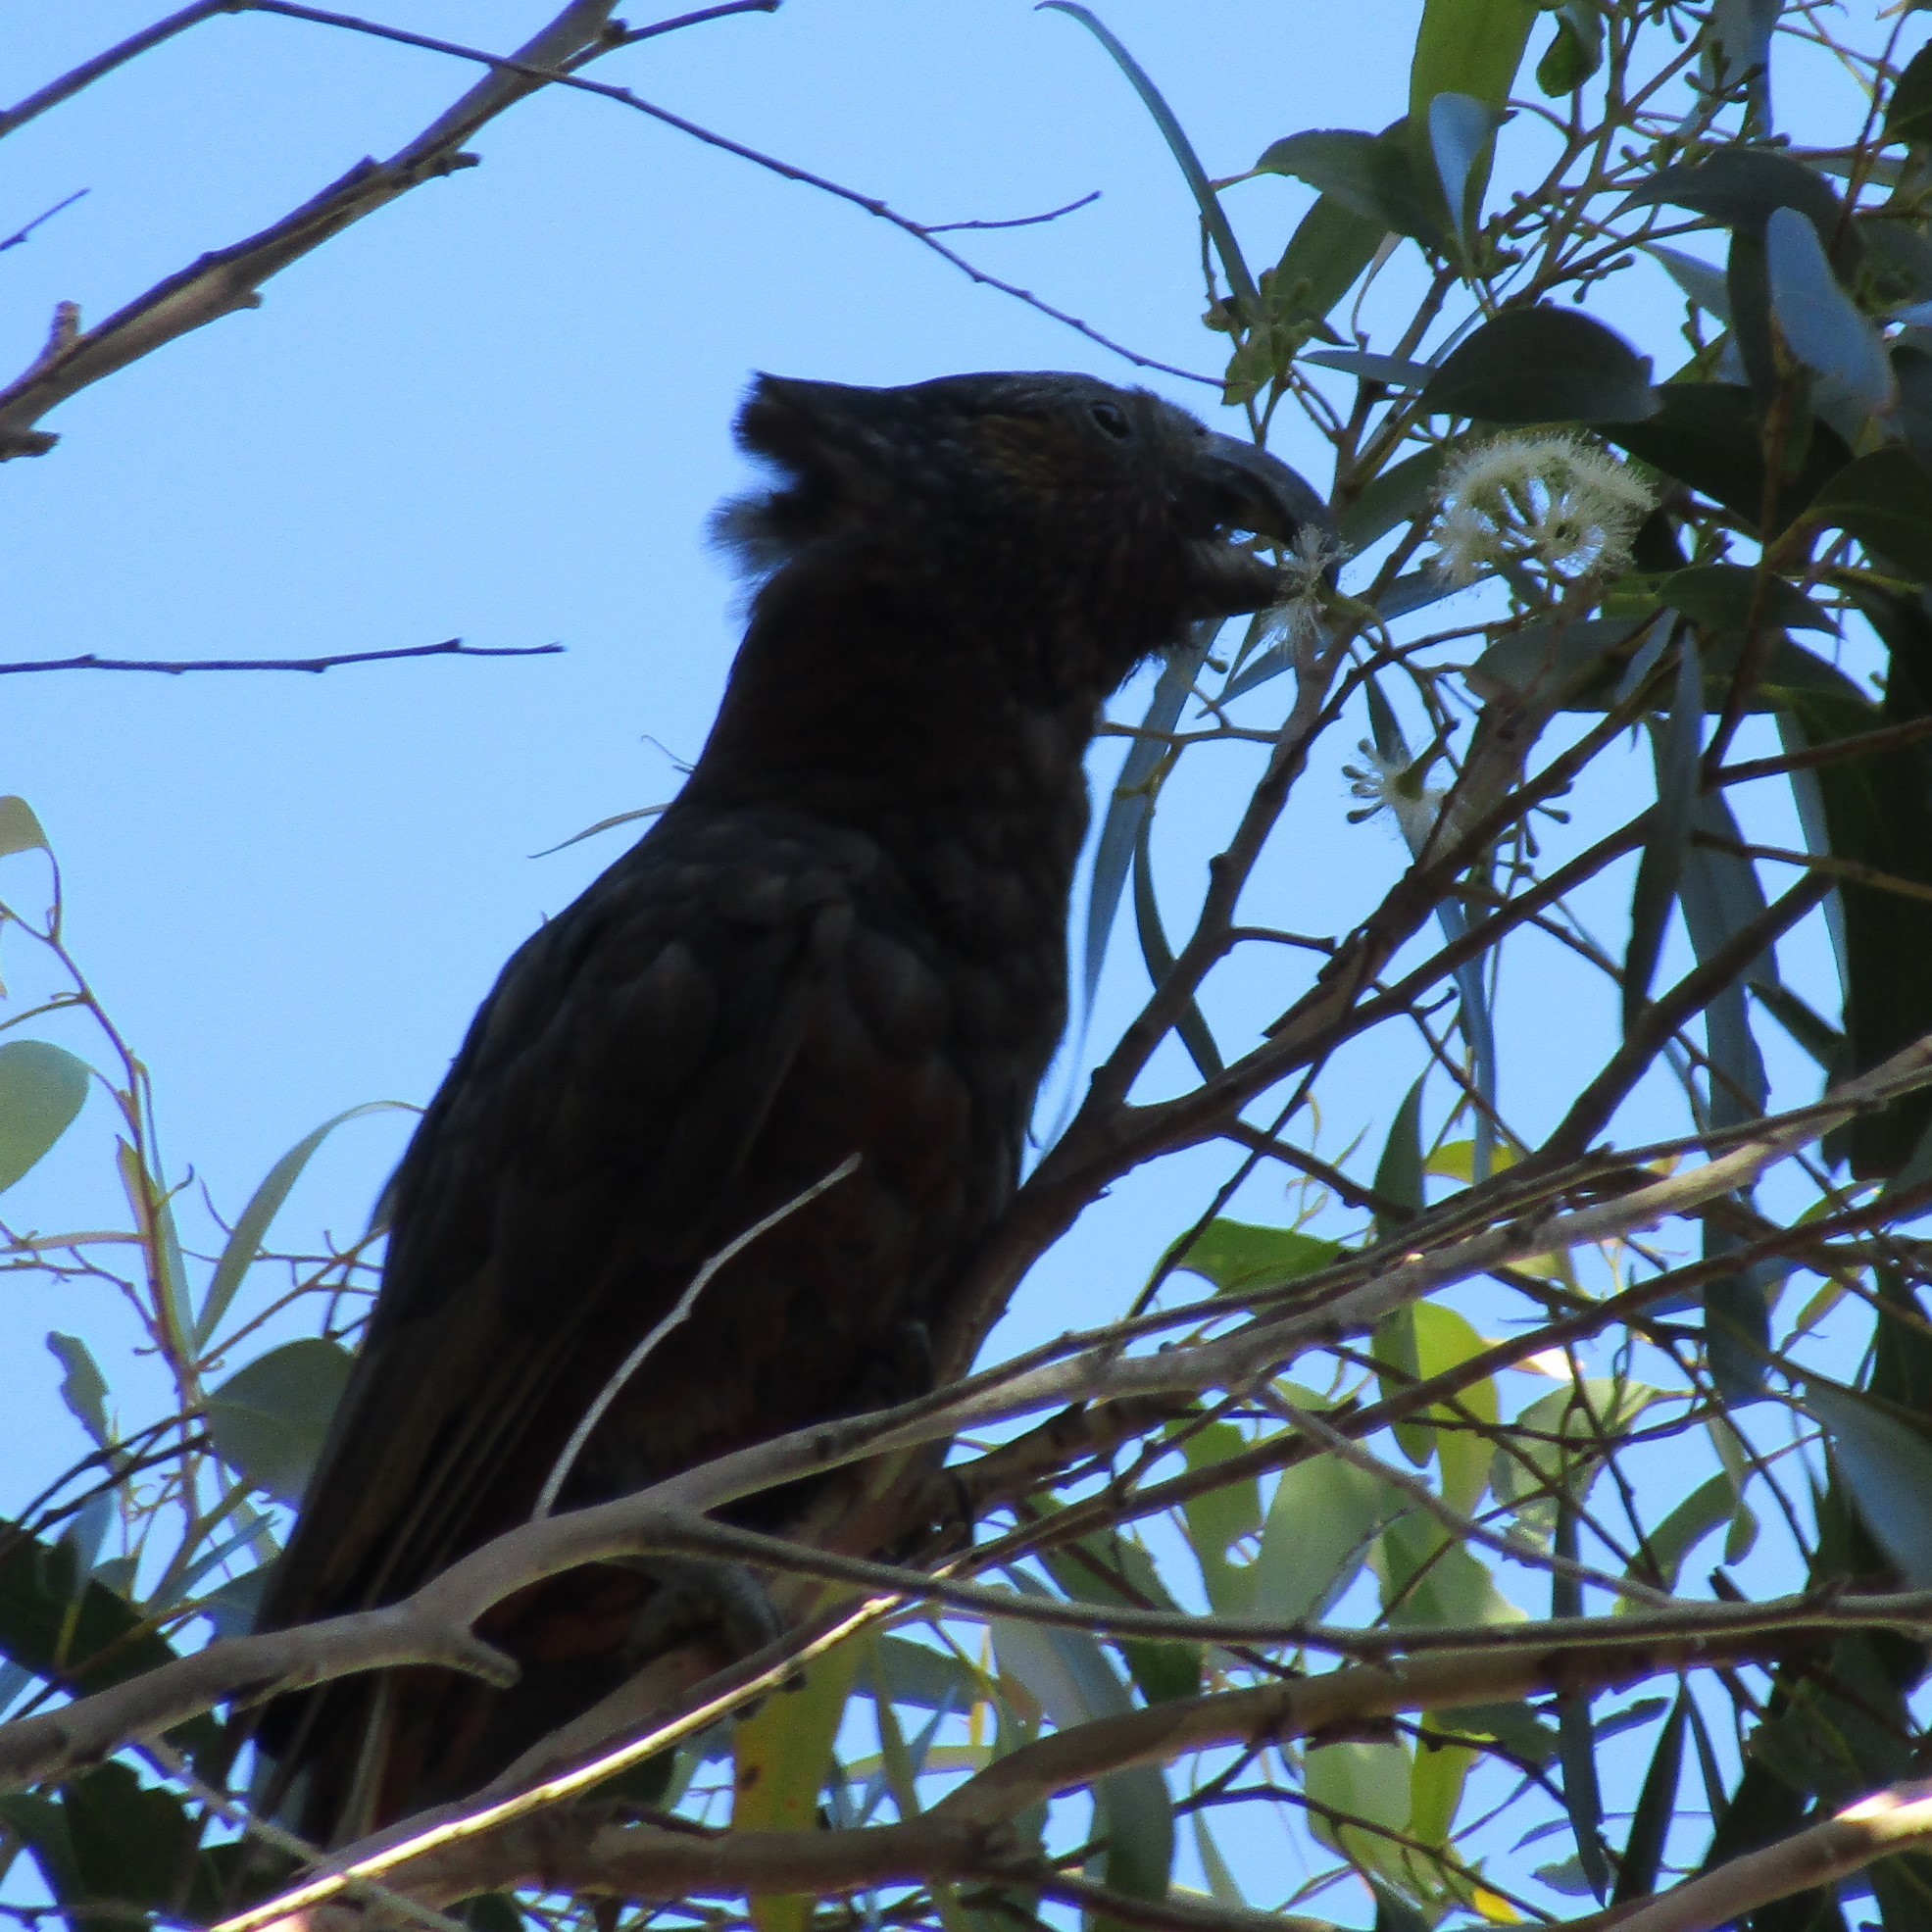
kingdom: Animalia
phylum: Chordata
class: Aves
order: Psittaciformes
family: Psittacidae
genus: Nestor
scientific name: Nestor meridionalis
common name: New zealand kaka
